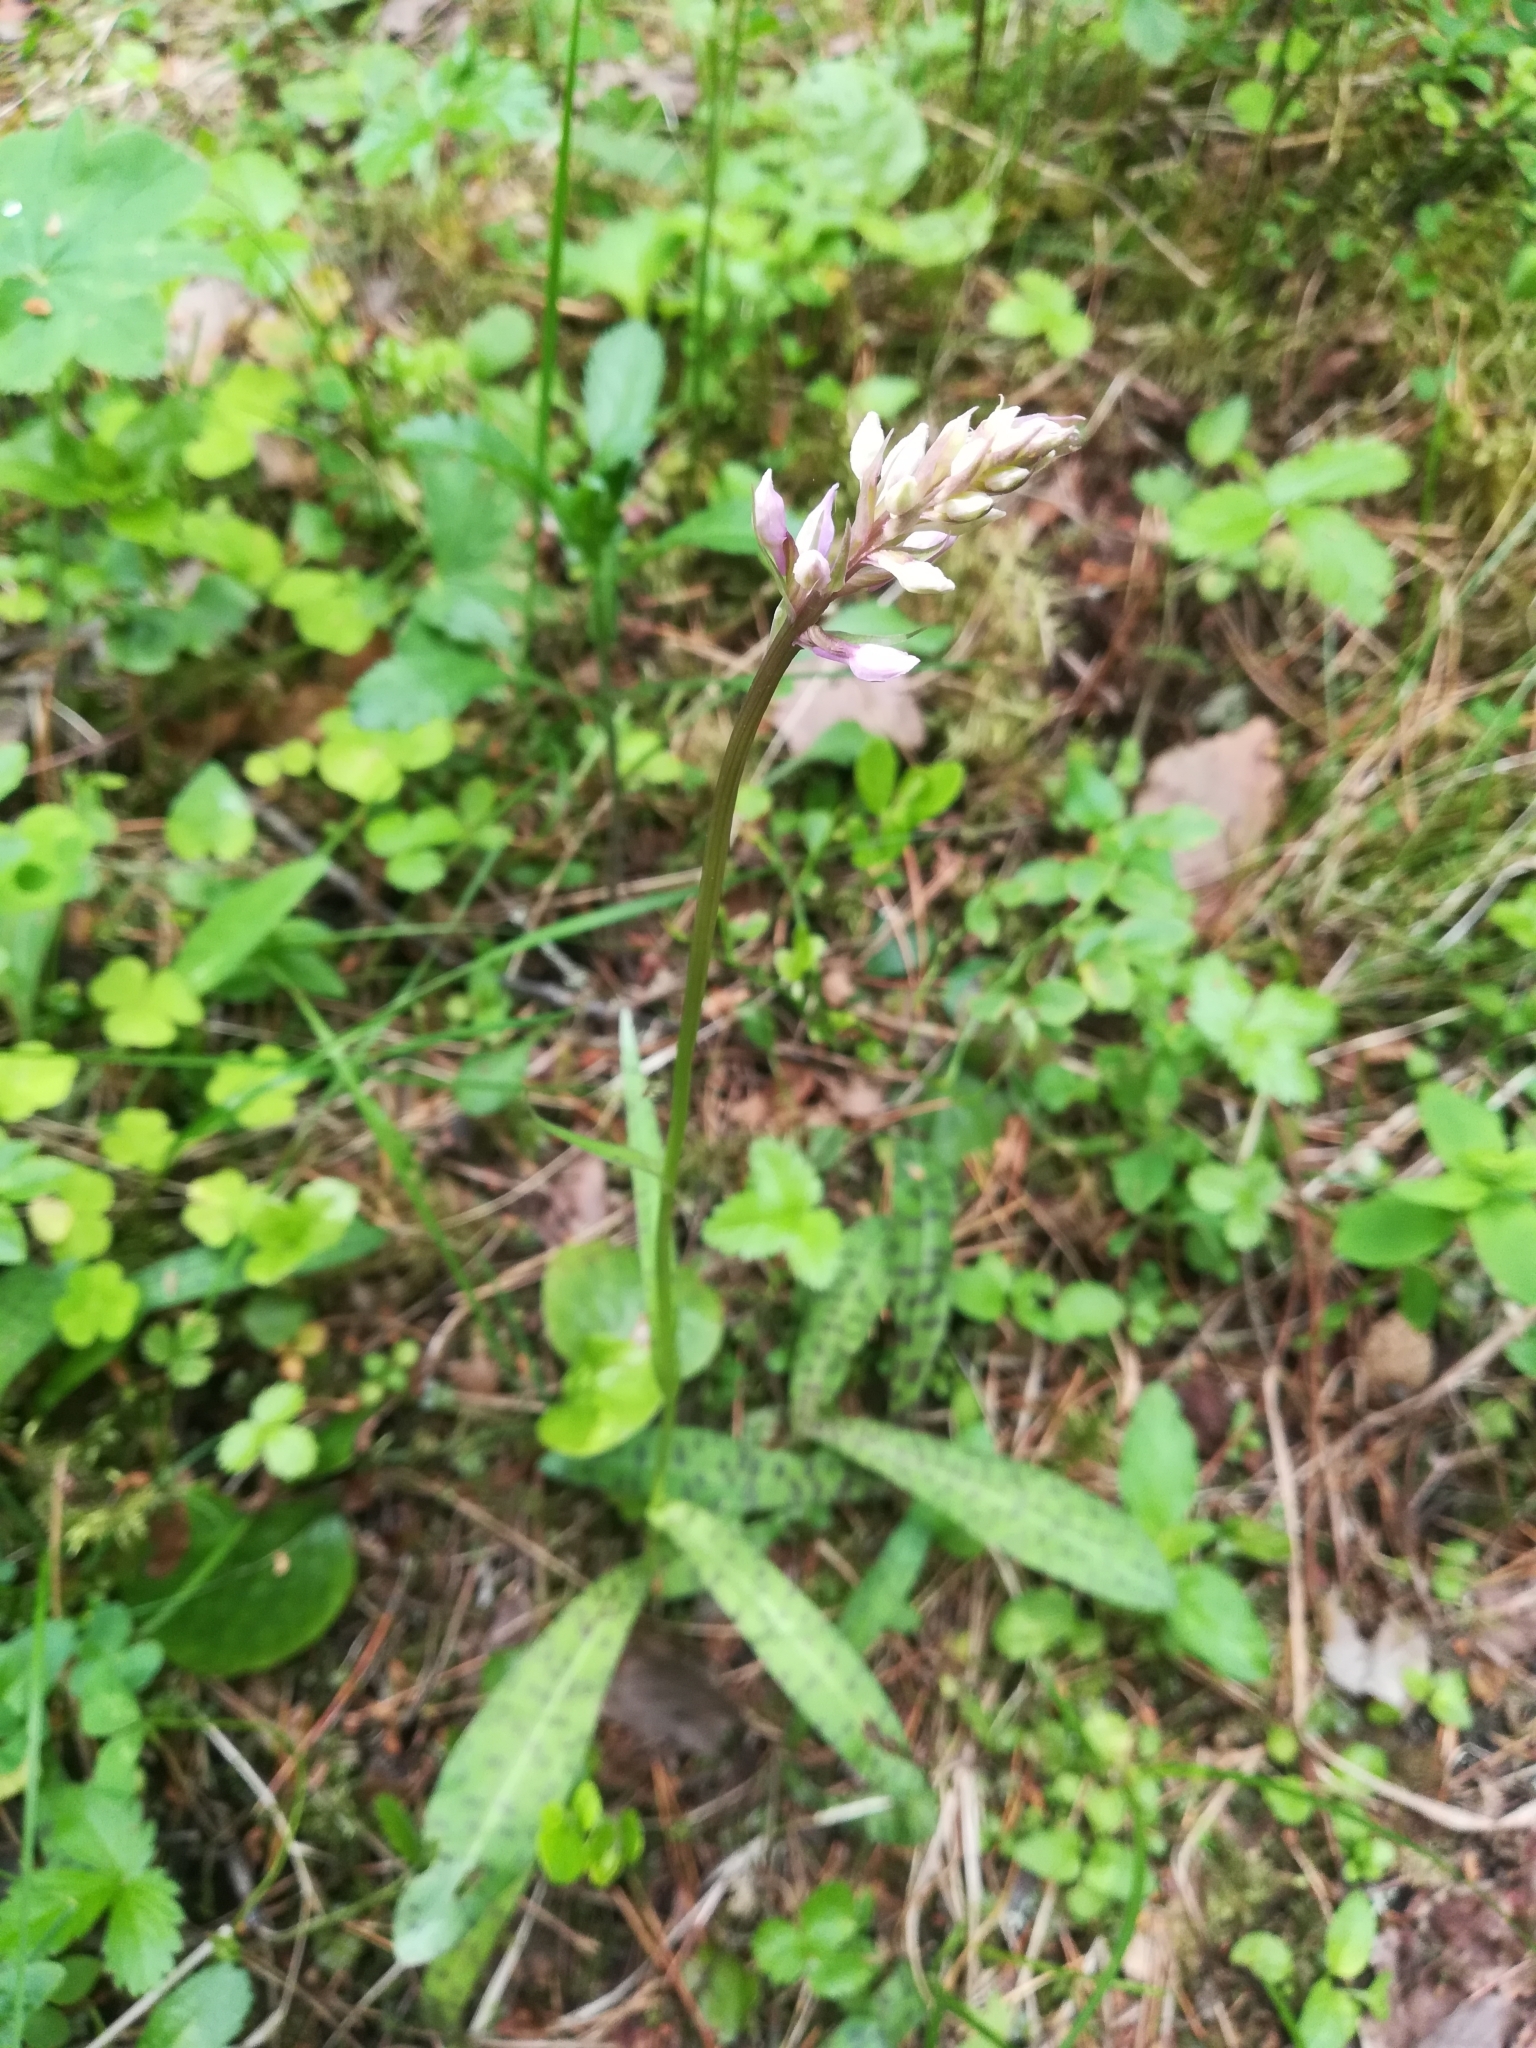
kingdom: Plantae
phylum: Tracheophyta
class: Liliopsida
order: Asparagales
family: Orchidaceae
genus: Dactylorhiza
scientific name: Dactylorhiza maculata
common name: Heath spotted-orchid
